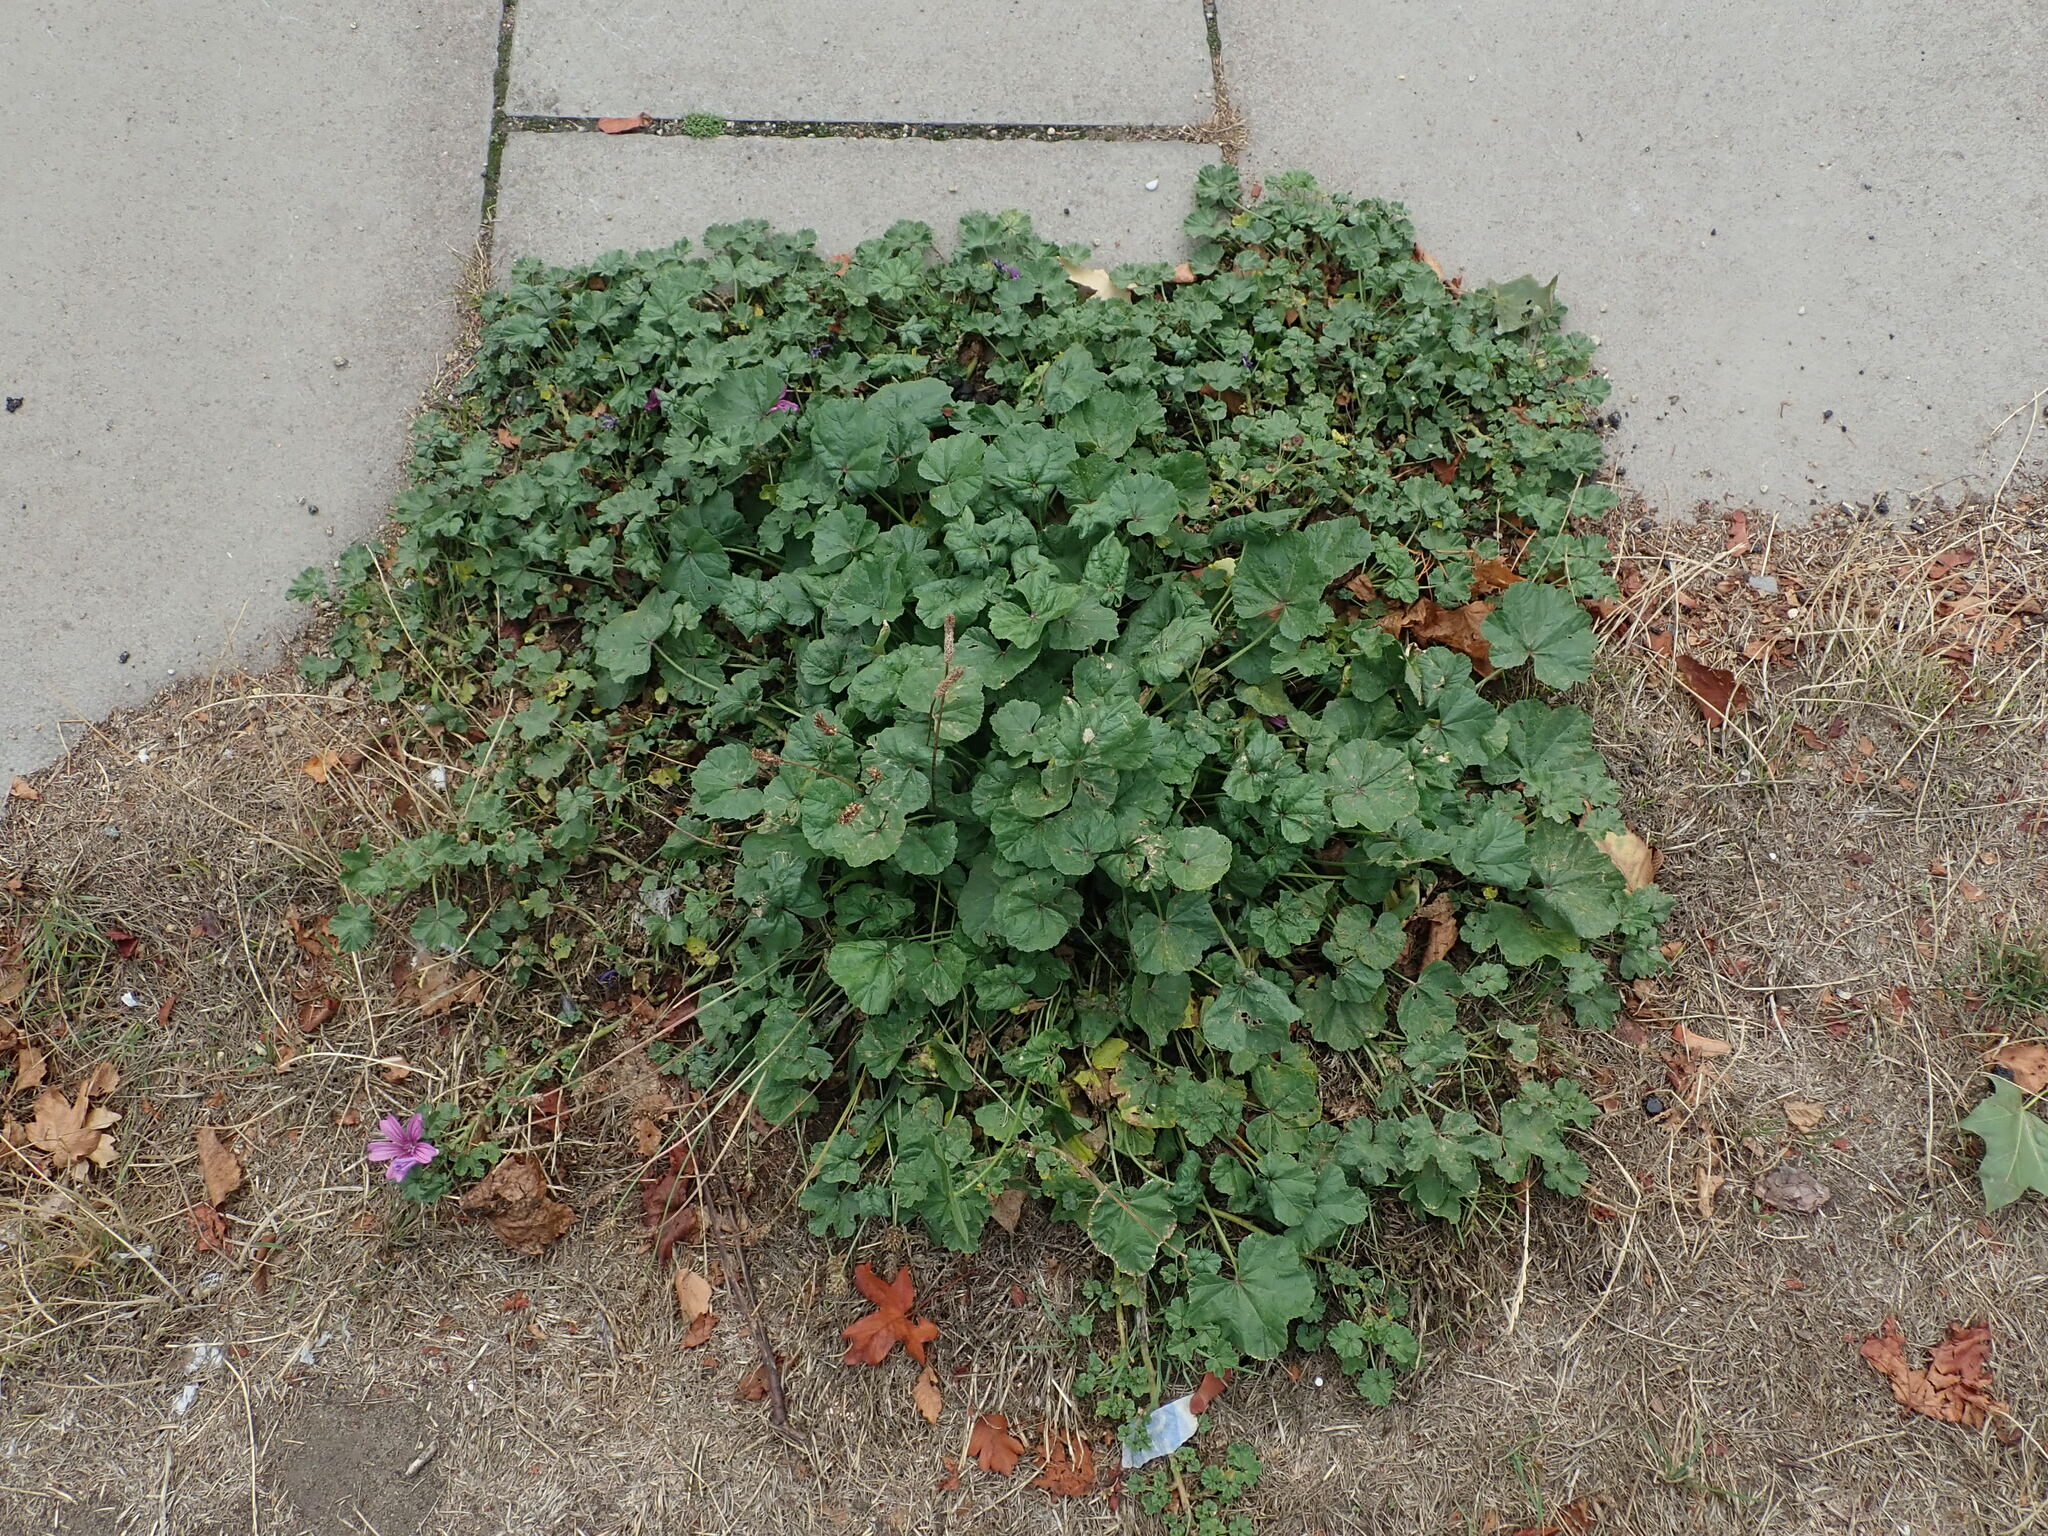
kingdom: Plantae
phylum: Tracheophyta
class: Magnoliopsida
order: Malvales
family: Malvaceae
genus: Malva
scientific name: Malva sylvestris
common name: Common mallow
